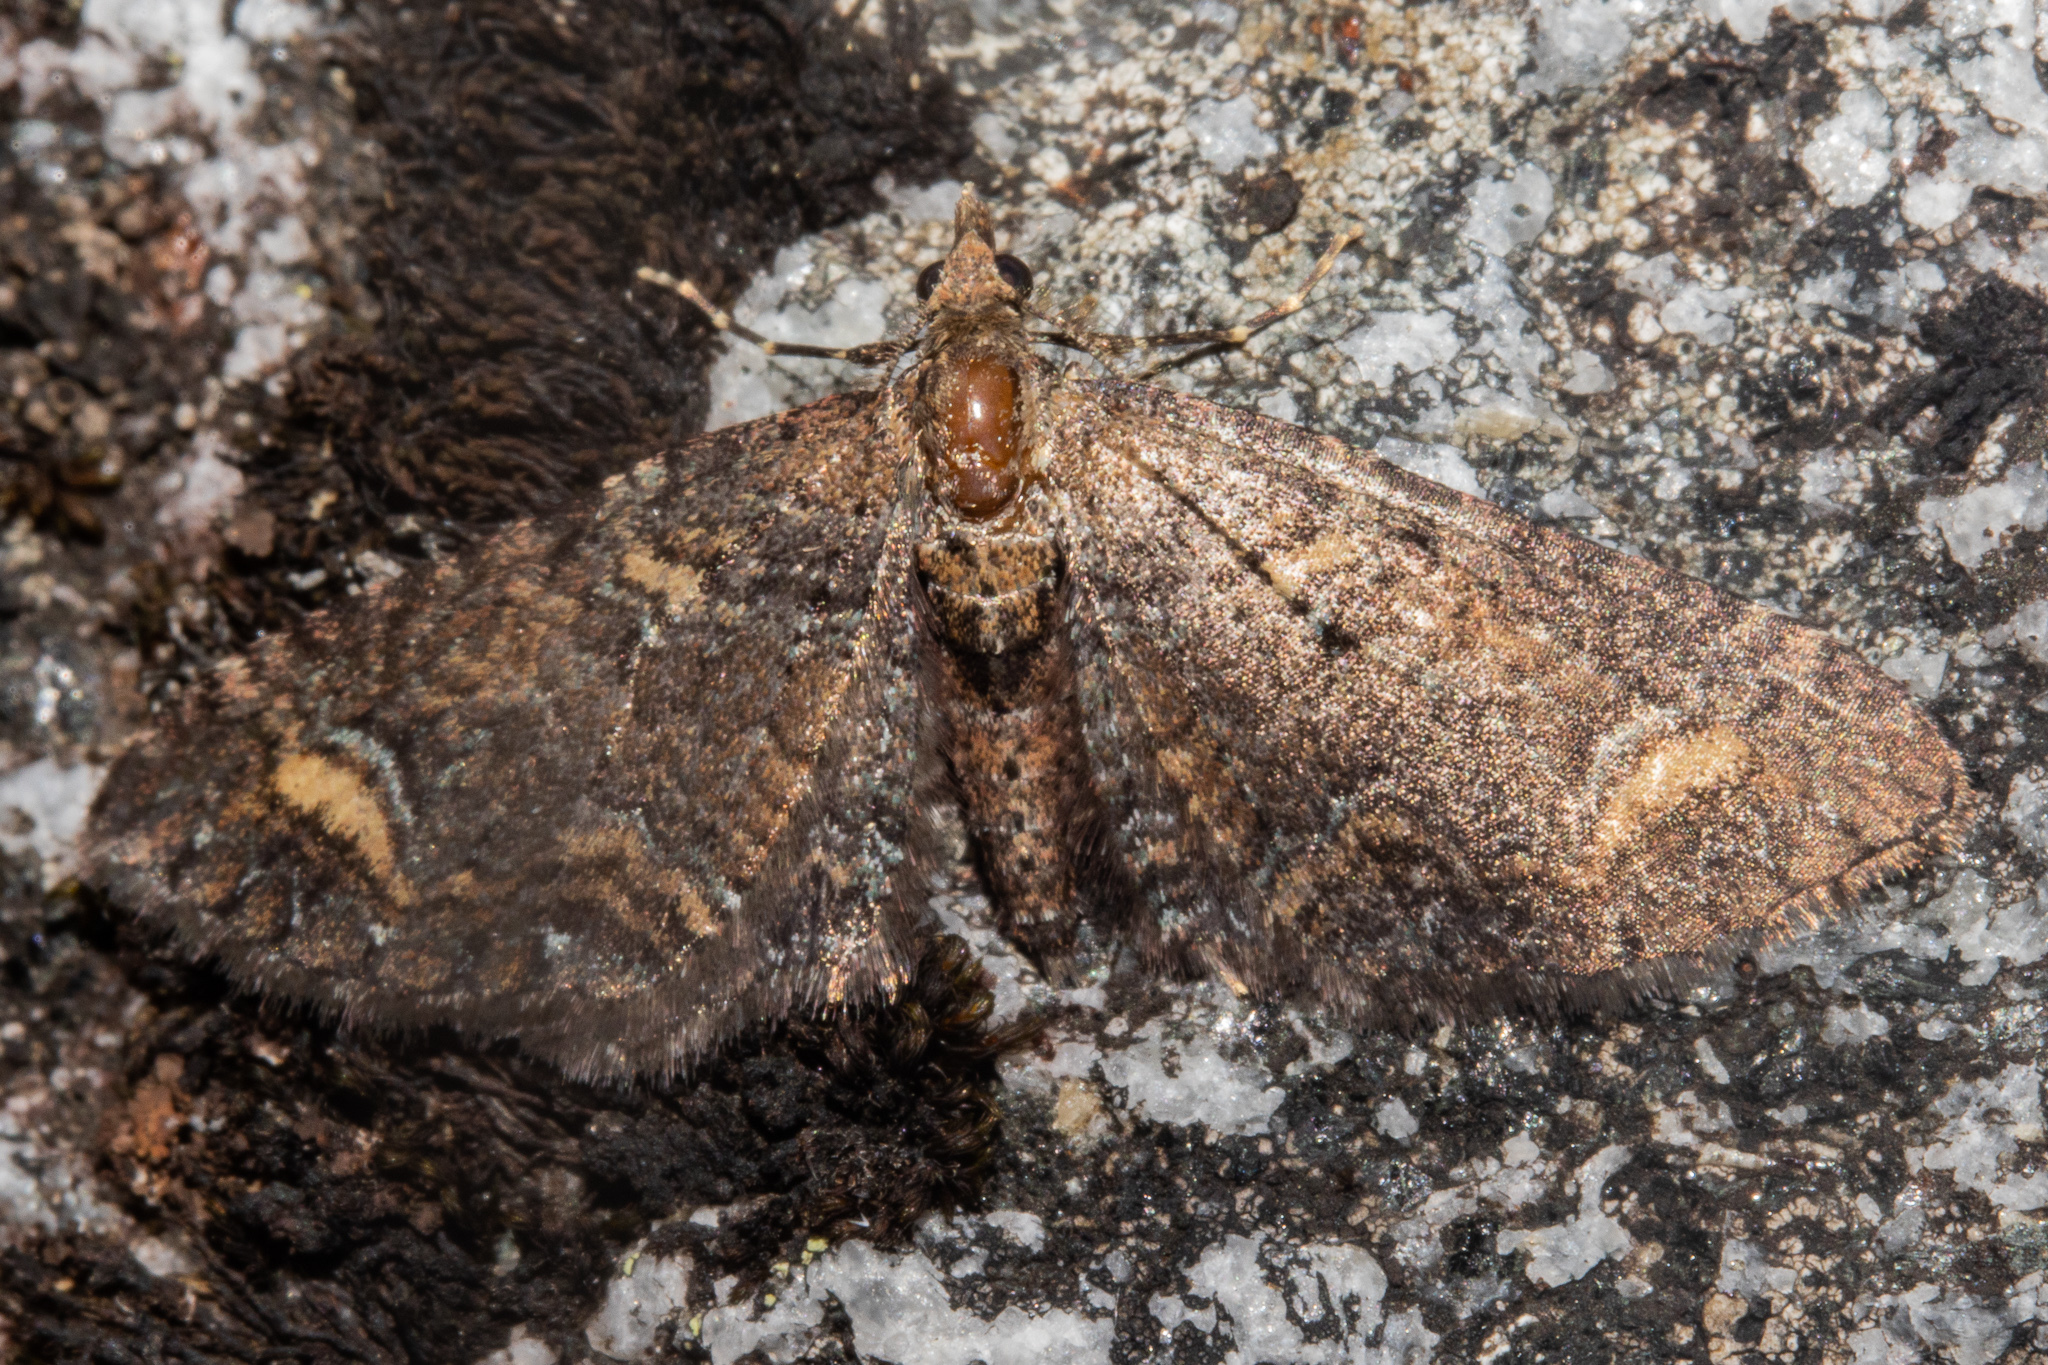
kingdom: Animalia
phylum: Arthropoda
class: Insecta
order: Lepidoptera
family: Geometridae
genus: Pasiphila
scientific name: Pasiphila rubella
